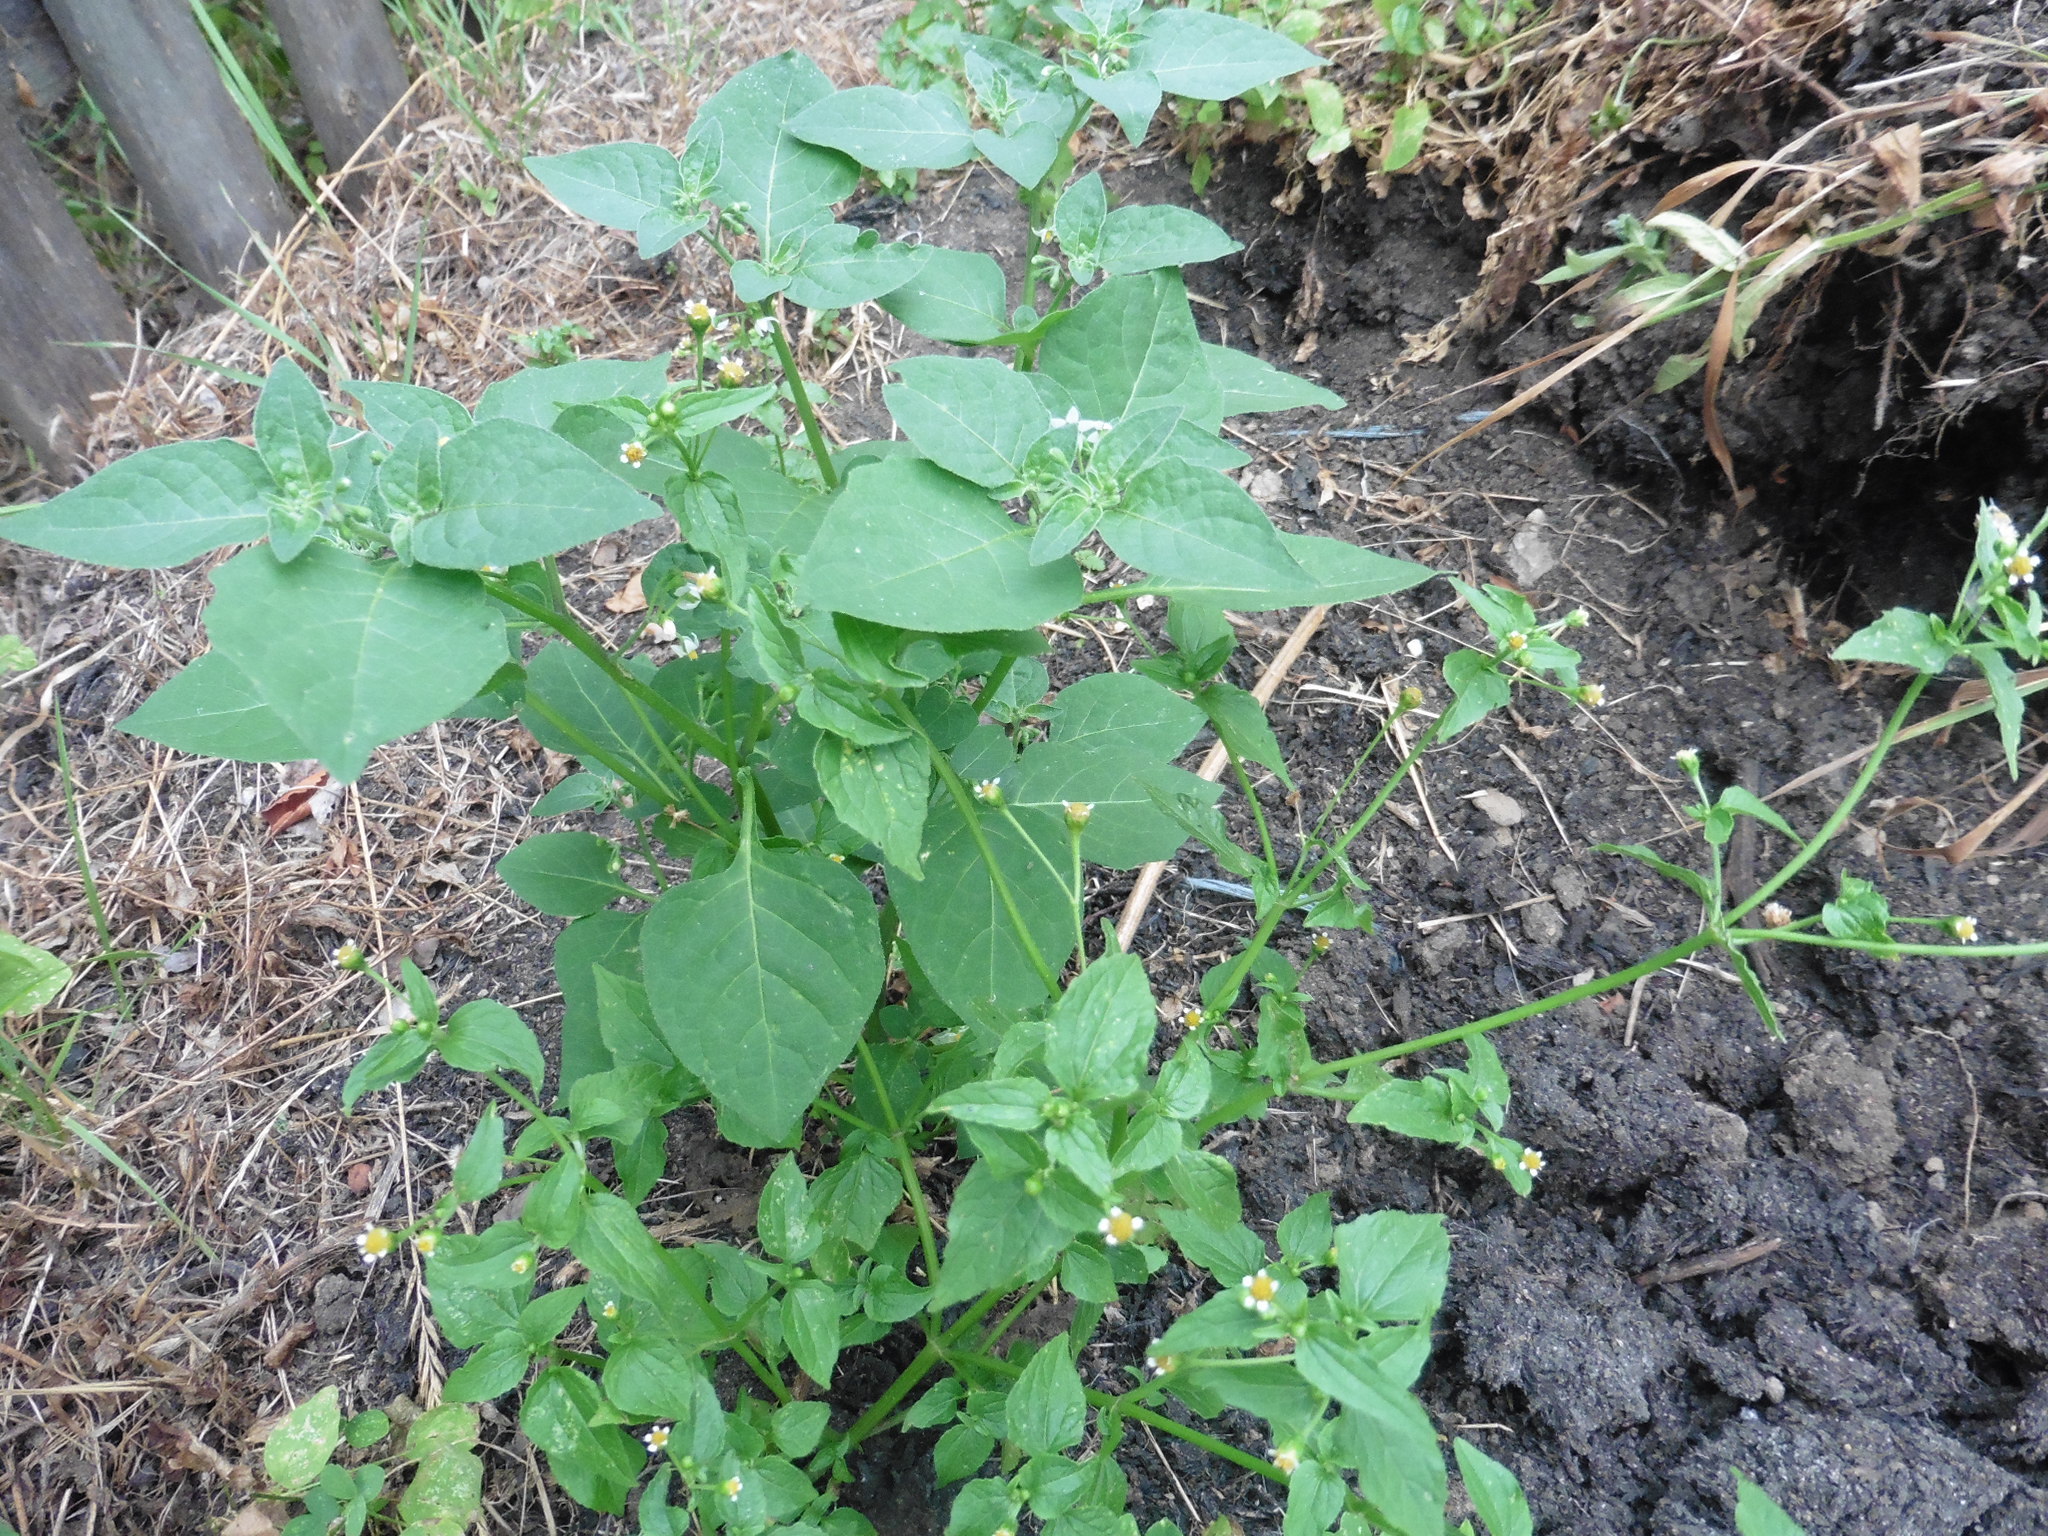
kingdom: Plantae
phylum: Tracheophyta
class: Magnoliopsida
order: Asterales
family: Asteraceae
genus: Galinsoga
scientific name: Galinsoga parviflora
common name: Gallant soldier
